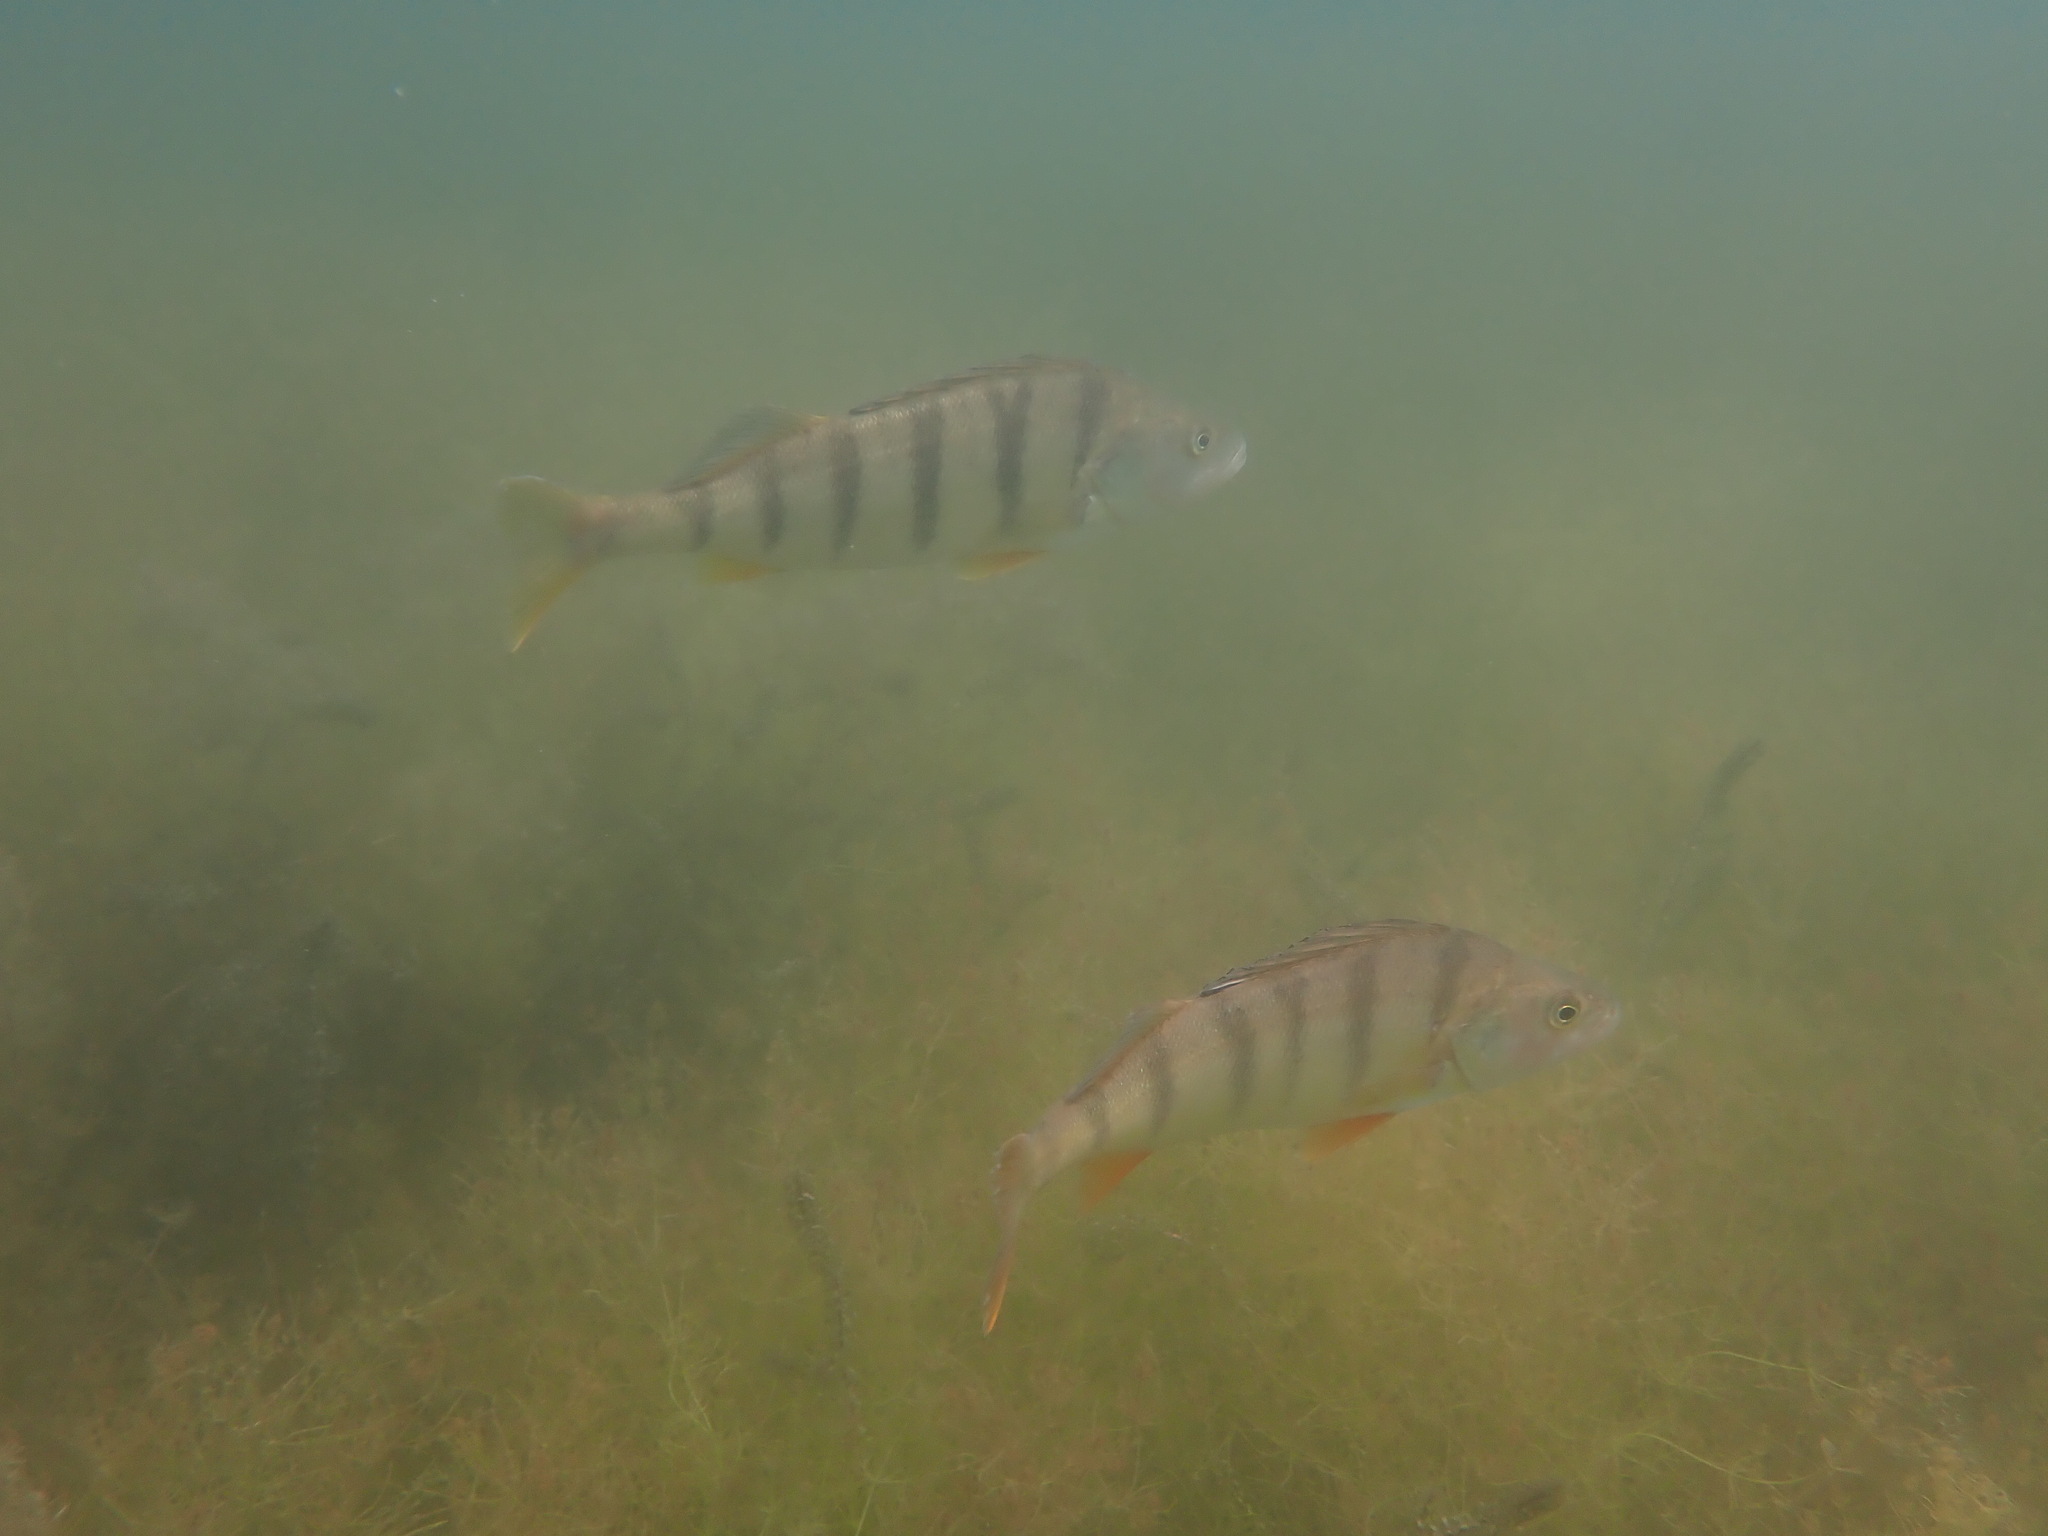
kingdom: Animalia
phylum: Chordata
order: Perciformes
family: Percidae
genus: Perca
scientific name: Perca fluviatilis
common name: Perch
